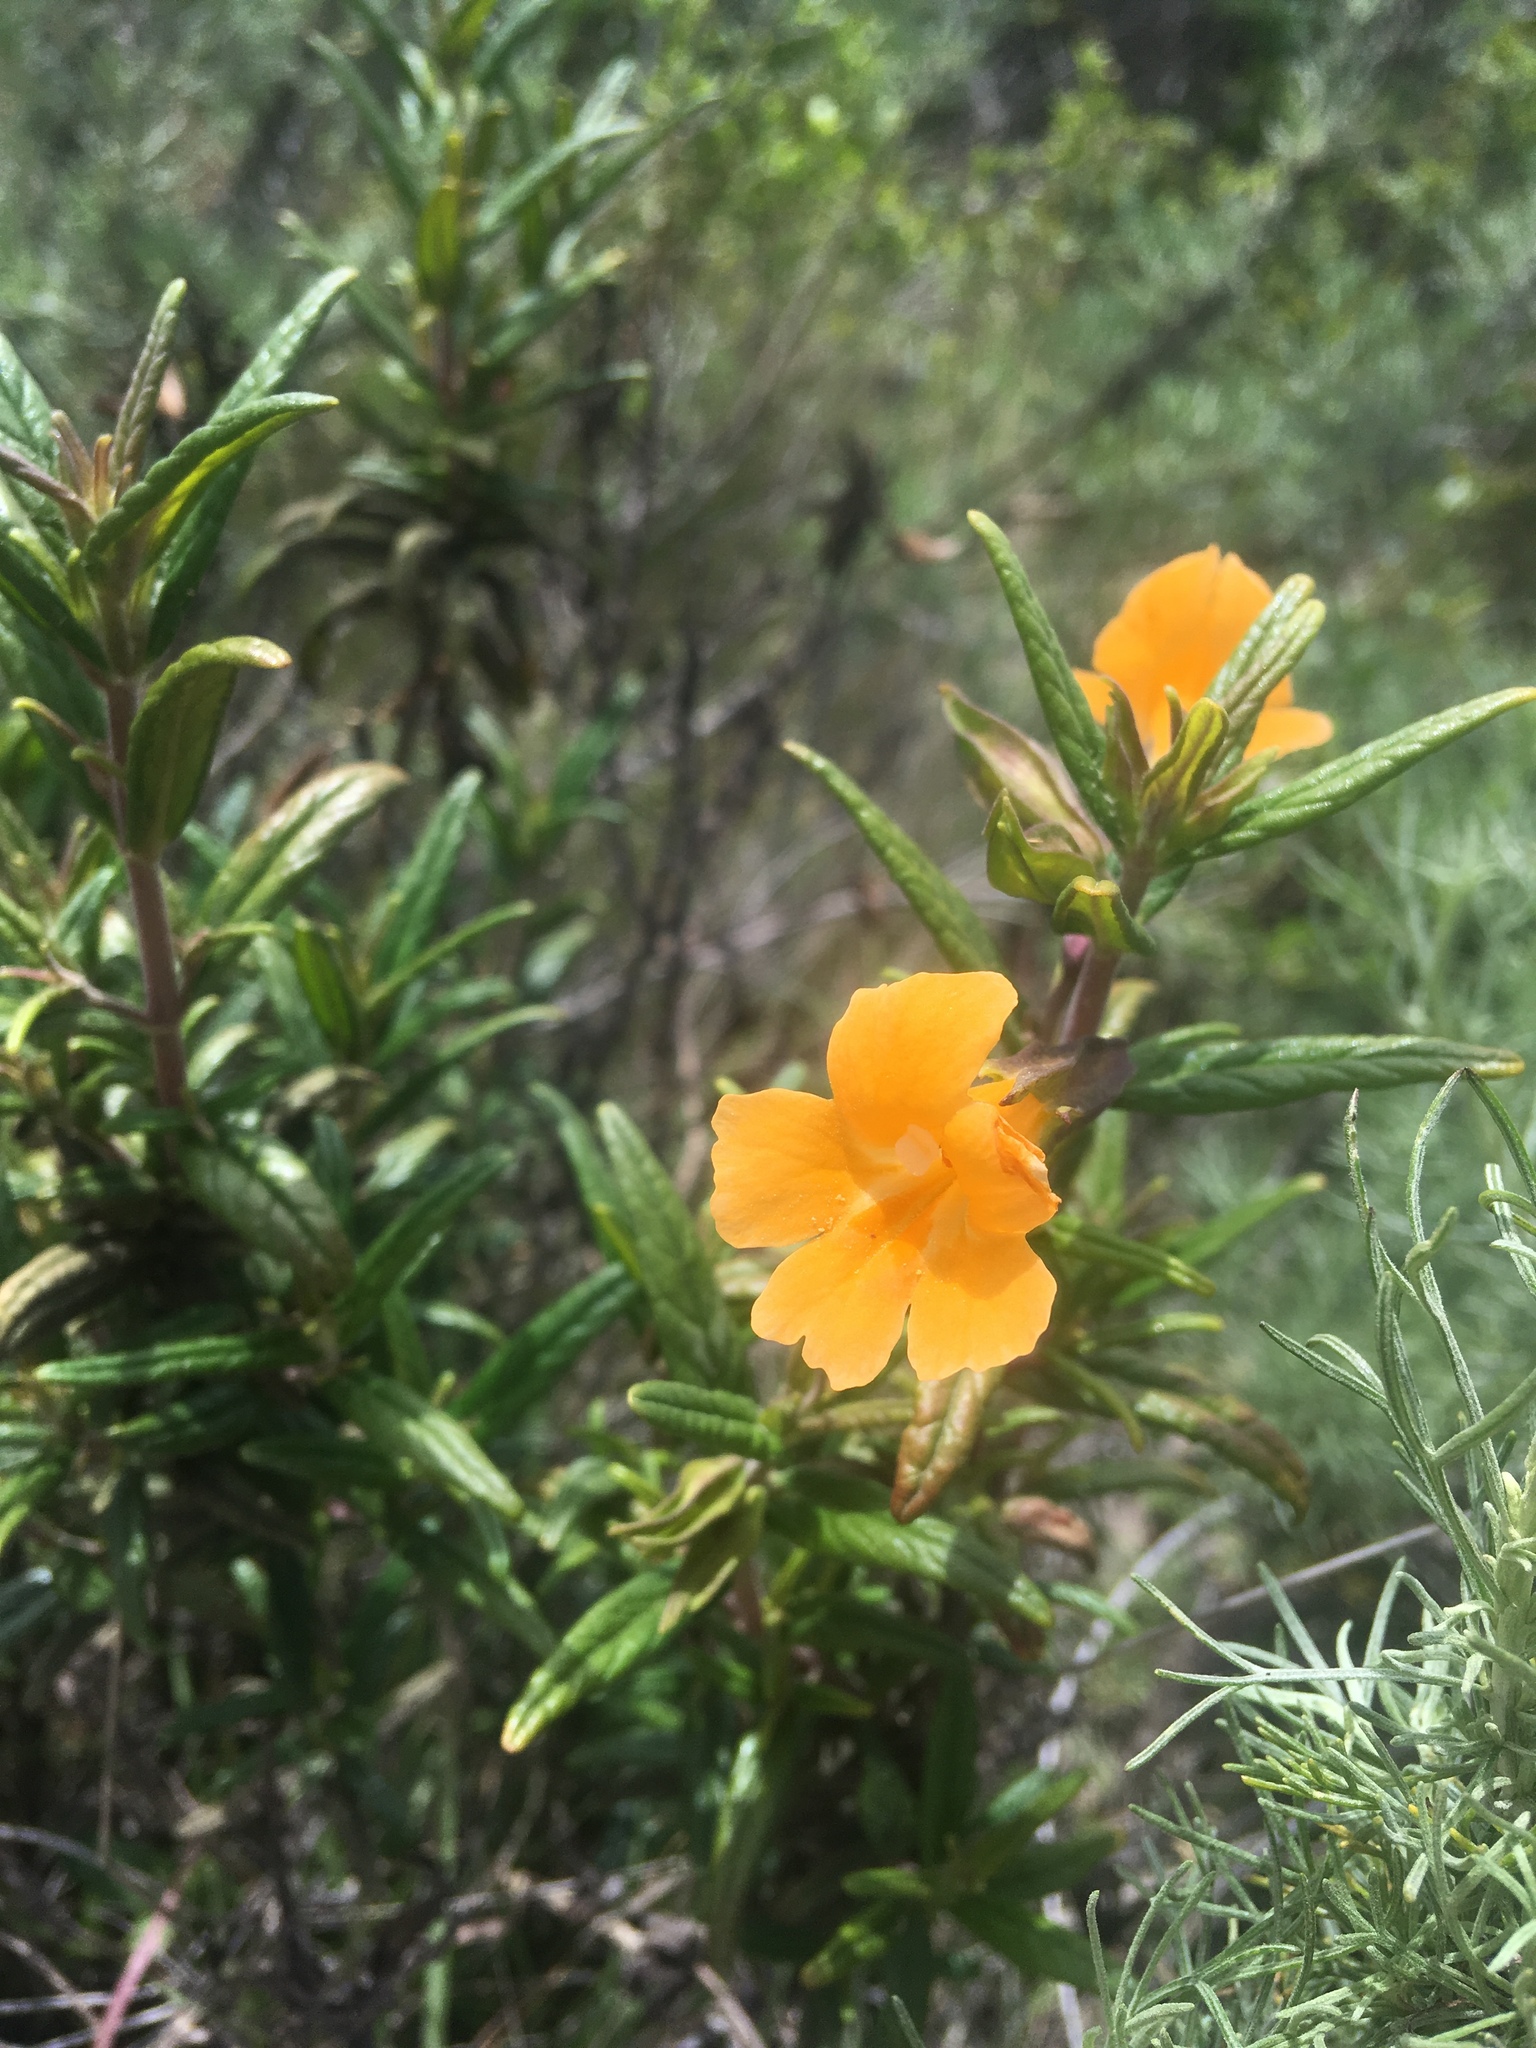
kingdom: Plantae
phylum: Tracheophyta
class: Magnoliopsida
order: Lamiales
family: Phrymaceae
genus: Diplacus
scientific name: Diplacus aurantiacus
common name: Bush monkey-flower
